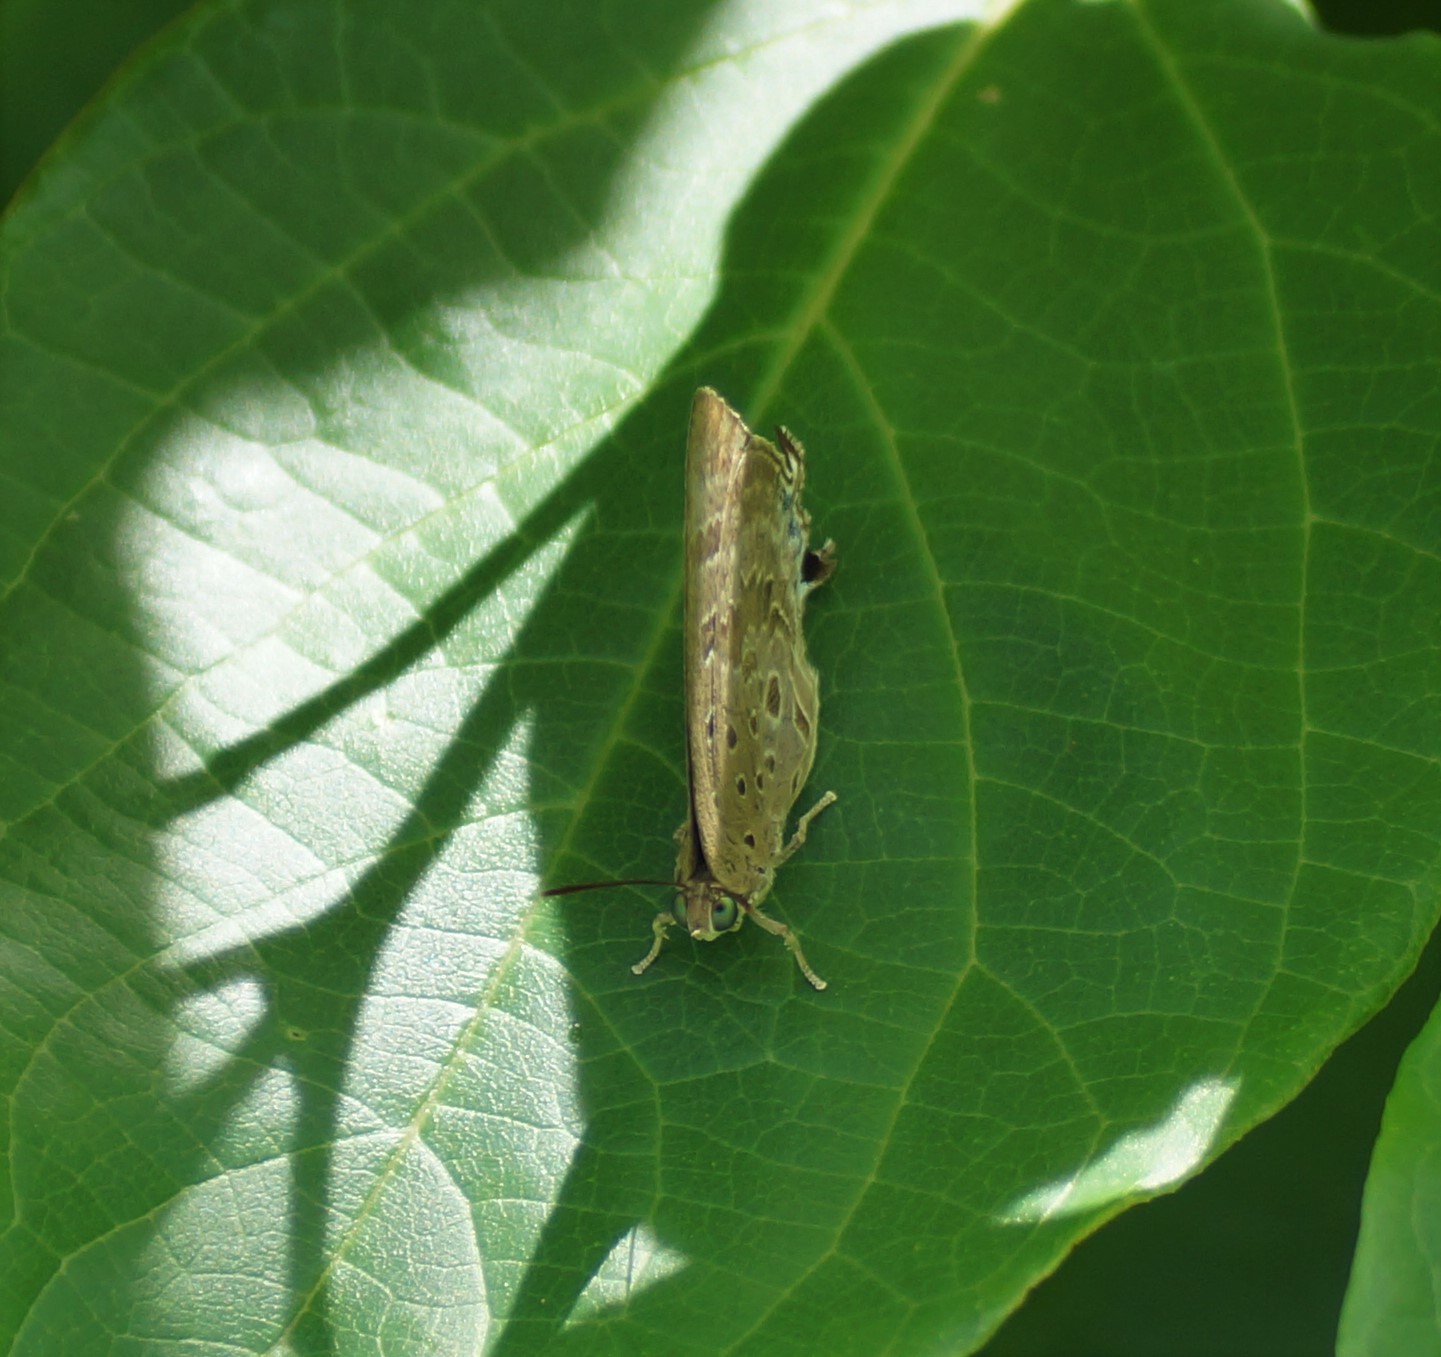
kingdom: Animalia
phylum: Arthropoda
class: Insecta
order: Lepidoptera
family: Lycaenidae
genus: Arhopala
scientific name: Arhopala
